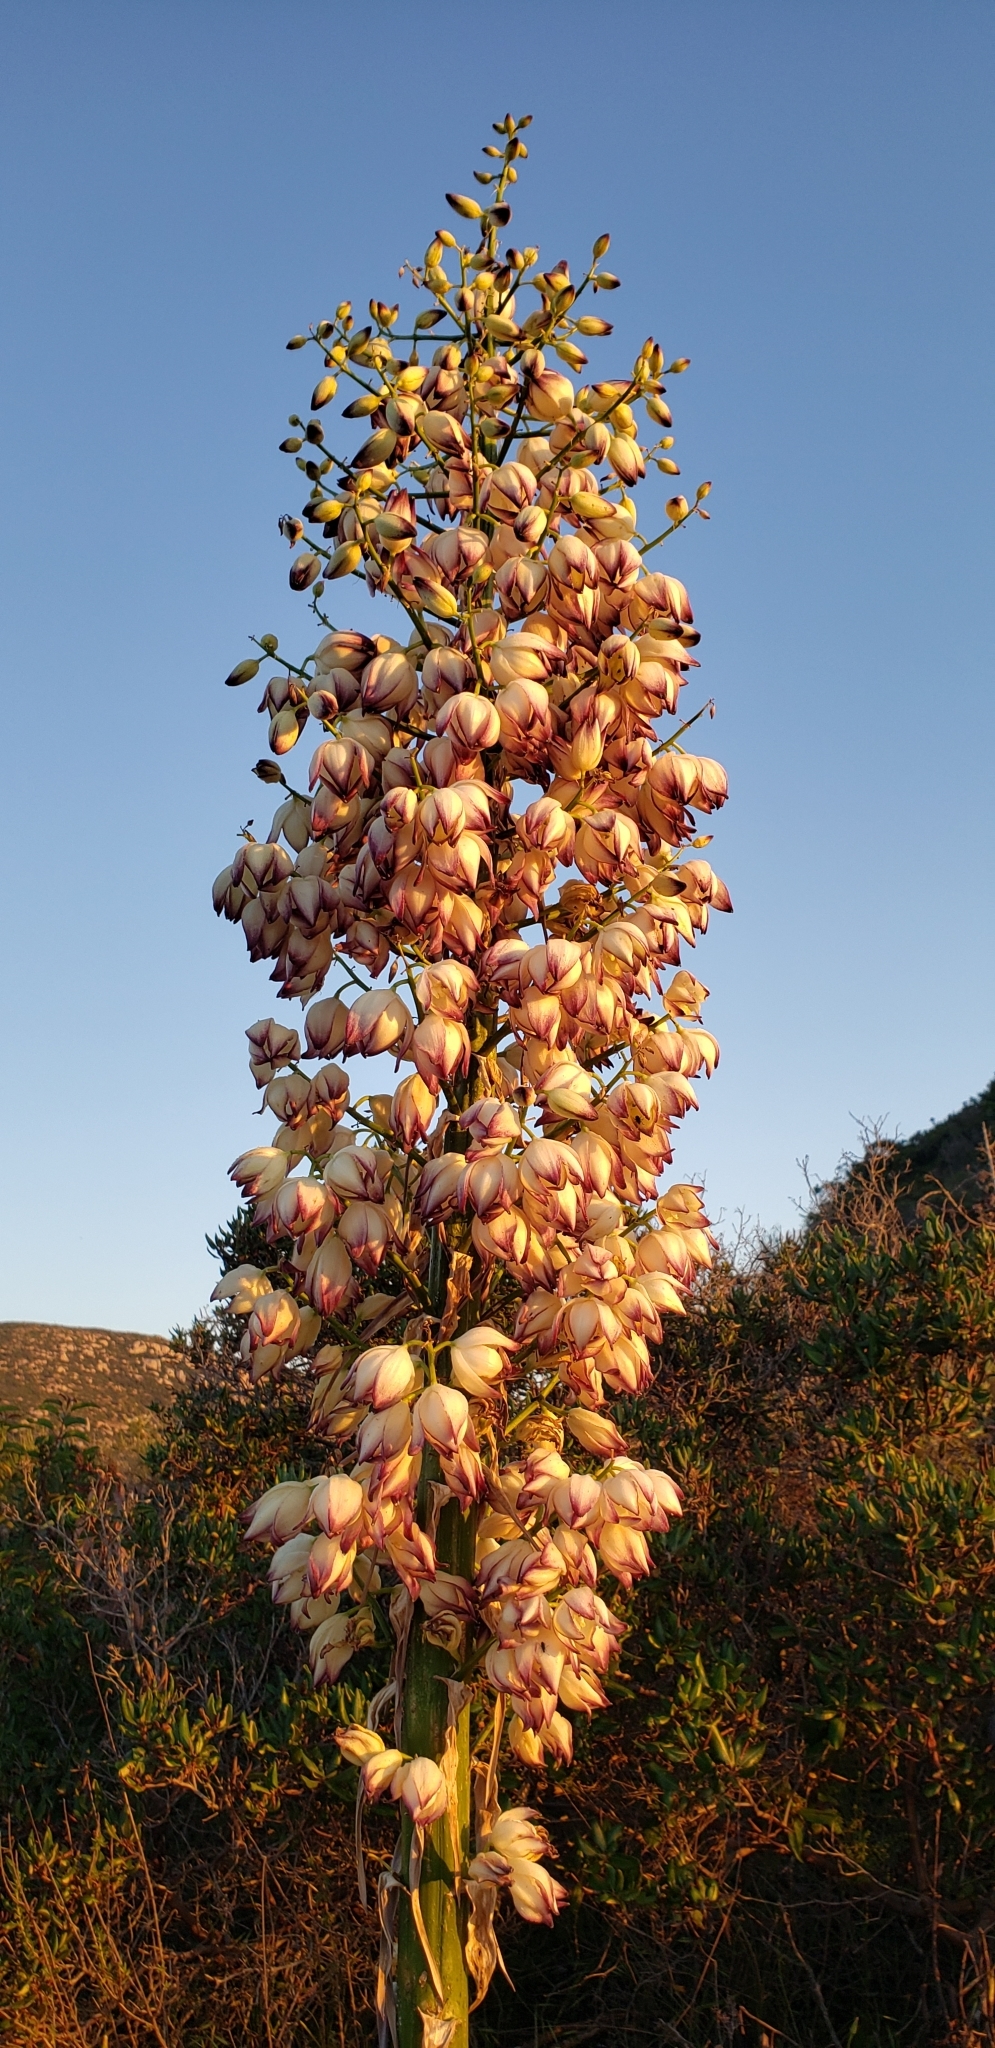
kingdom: Plantae
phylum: Tracheophyta
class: Liliopsida
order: Asparagales
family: Asparagaceae
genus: Hesperoyucca
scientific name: Hesperoyucca whipplei
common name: Our lord's-candle
